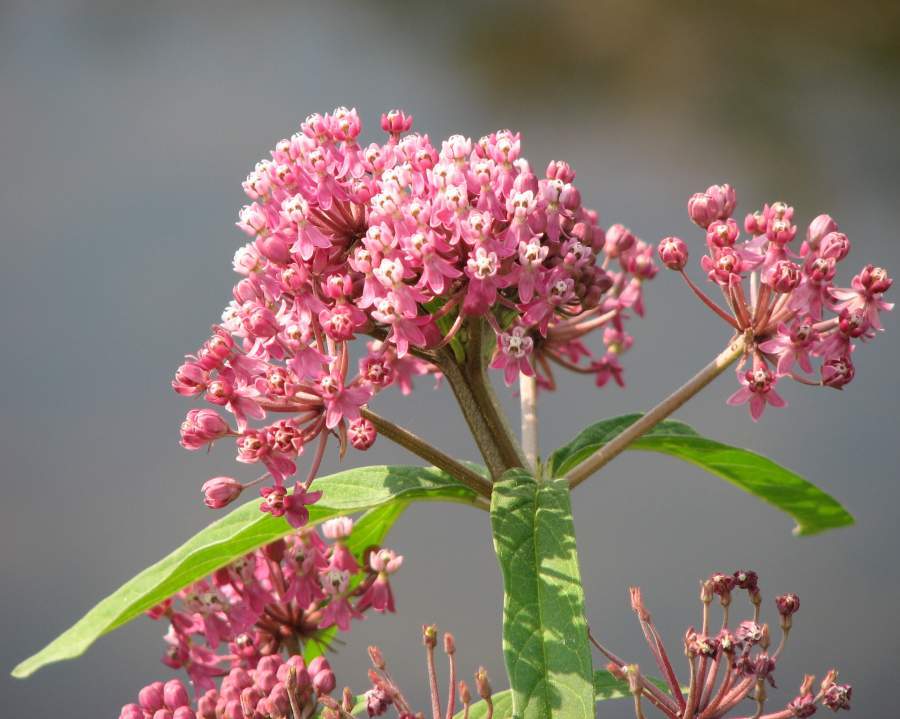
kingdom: Plantae
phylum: Tracheophyta
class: Magnoliopsida
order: Gentianales
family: Apocynaceae
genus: Asclepias
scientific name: Asclepias incarnata
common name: Swamp milkweed
